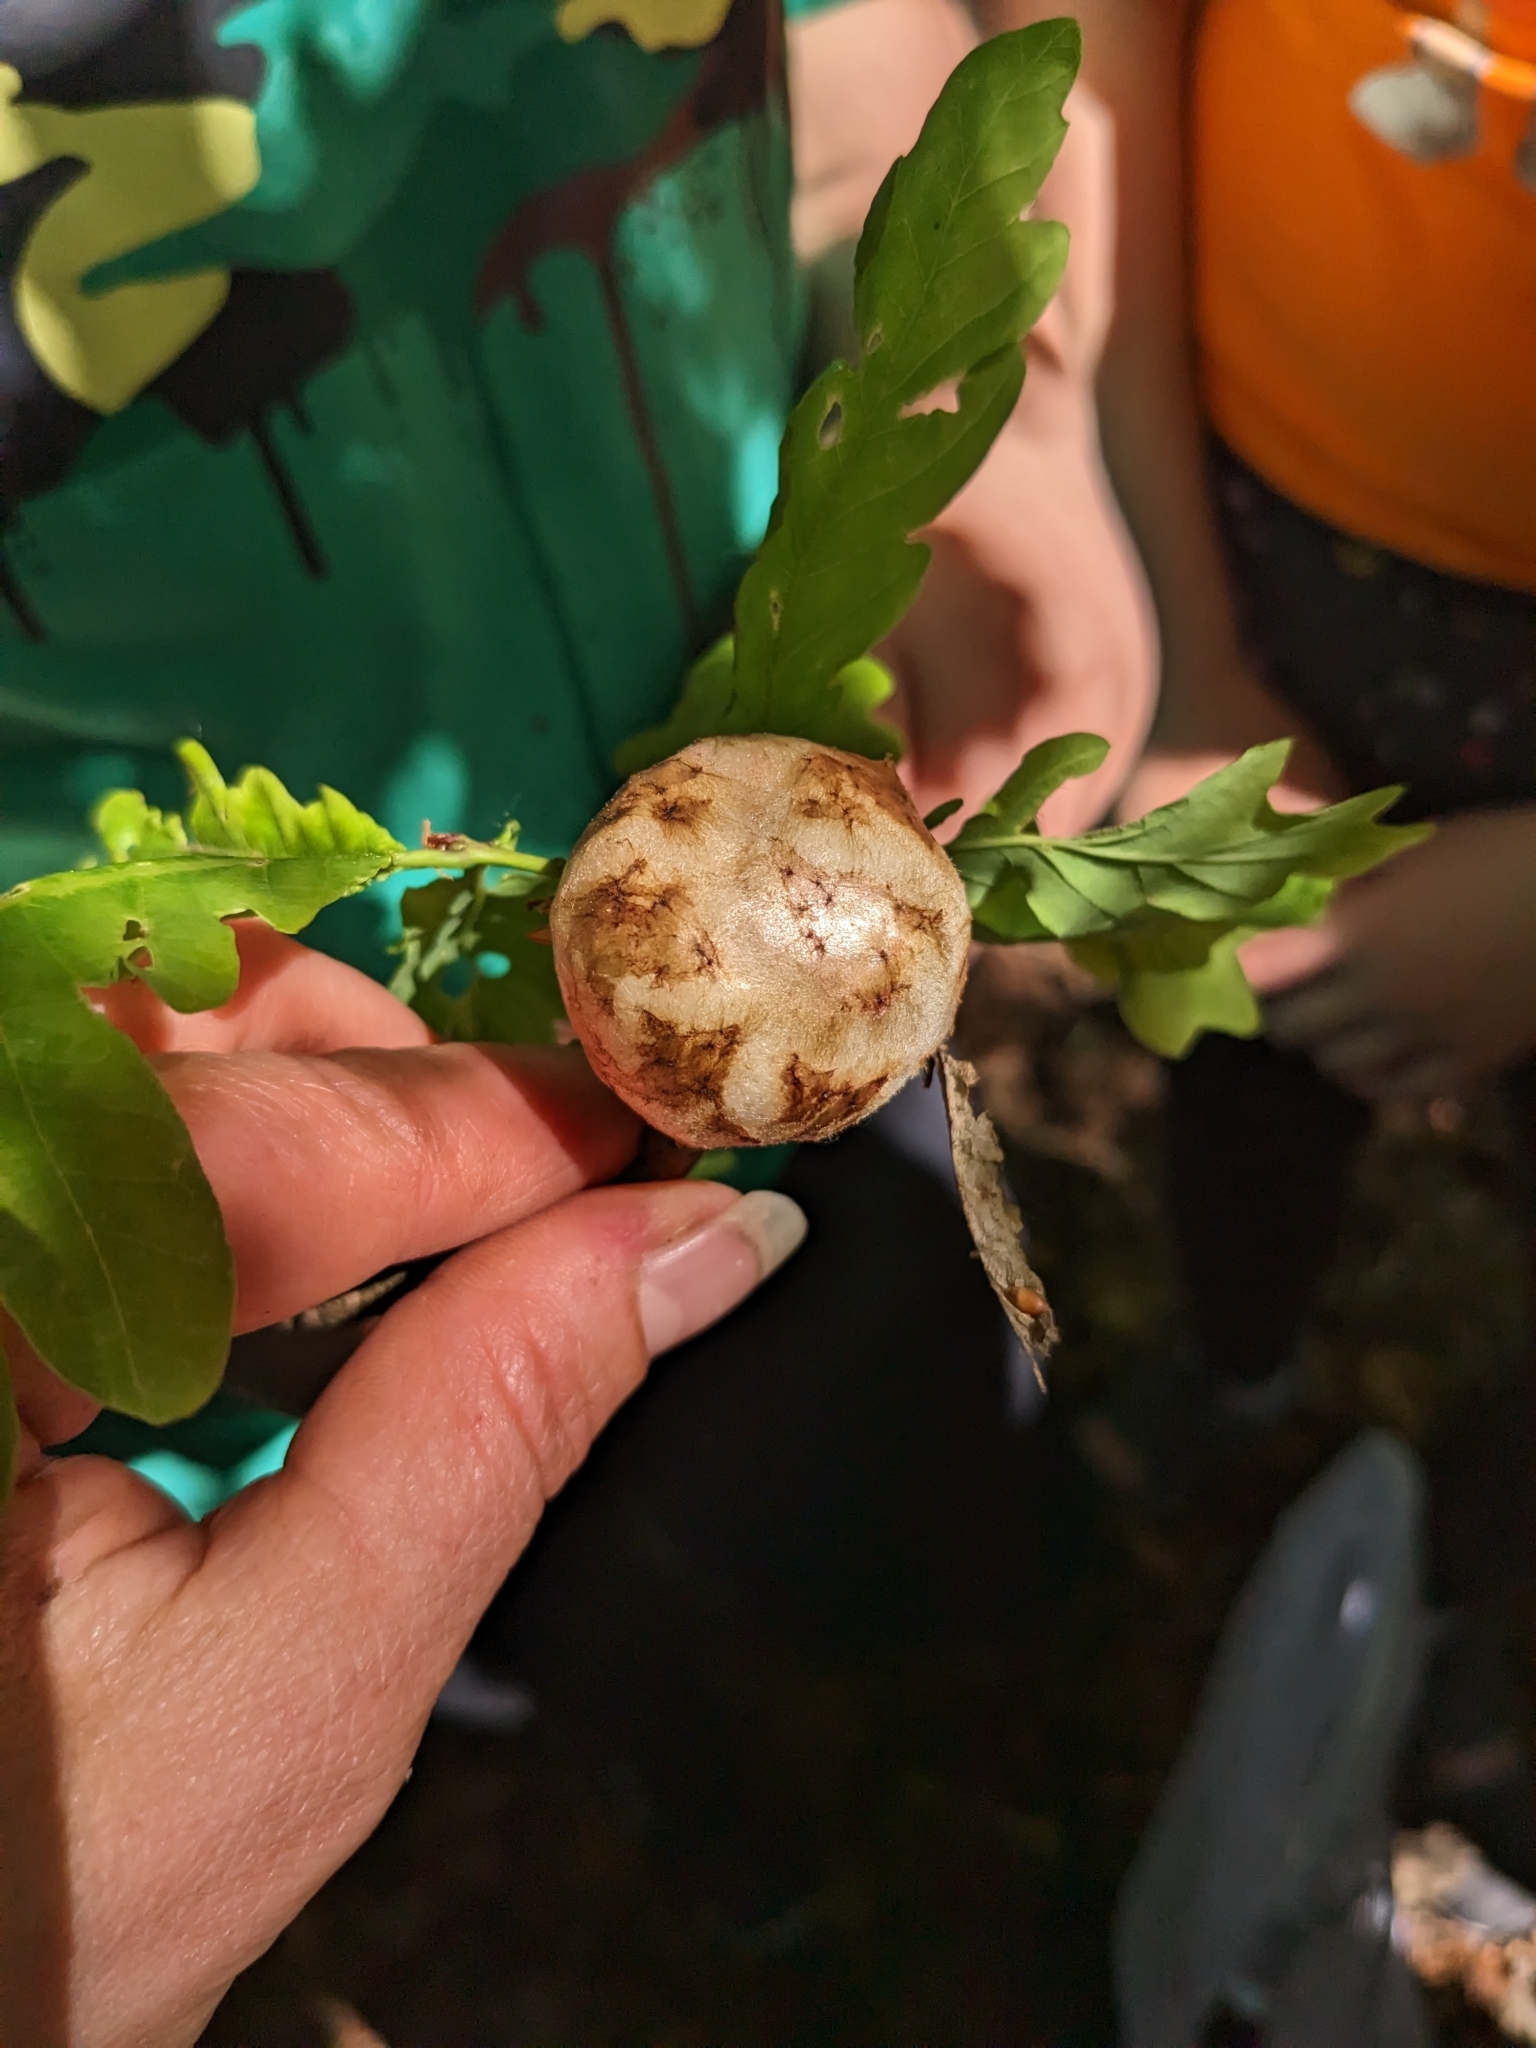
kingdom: Animalia
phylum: Arthropoda
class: Insecta
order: Hymenoptera
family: Cynipidae
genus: Biorhiza
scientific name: Biorhiza pallida
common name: Oak apple
